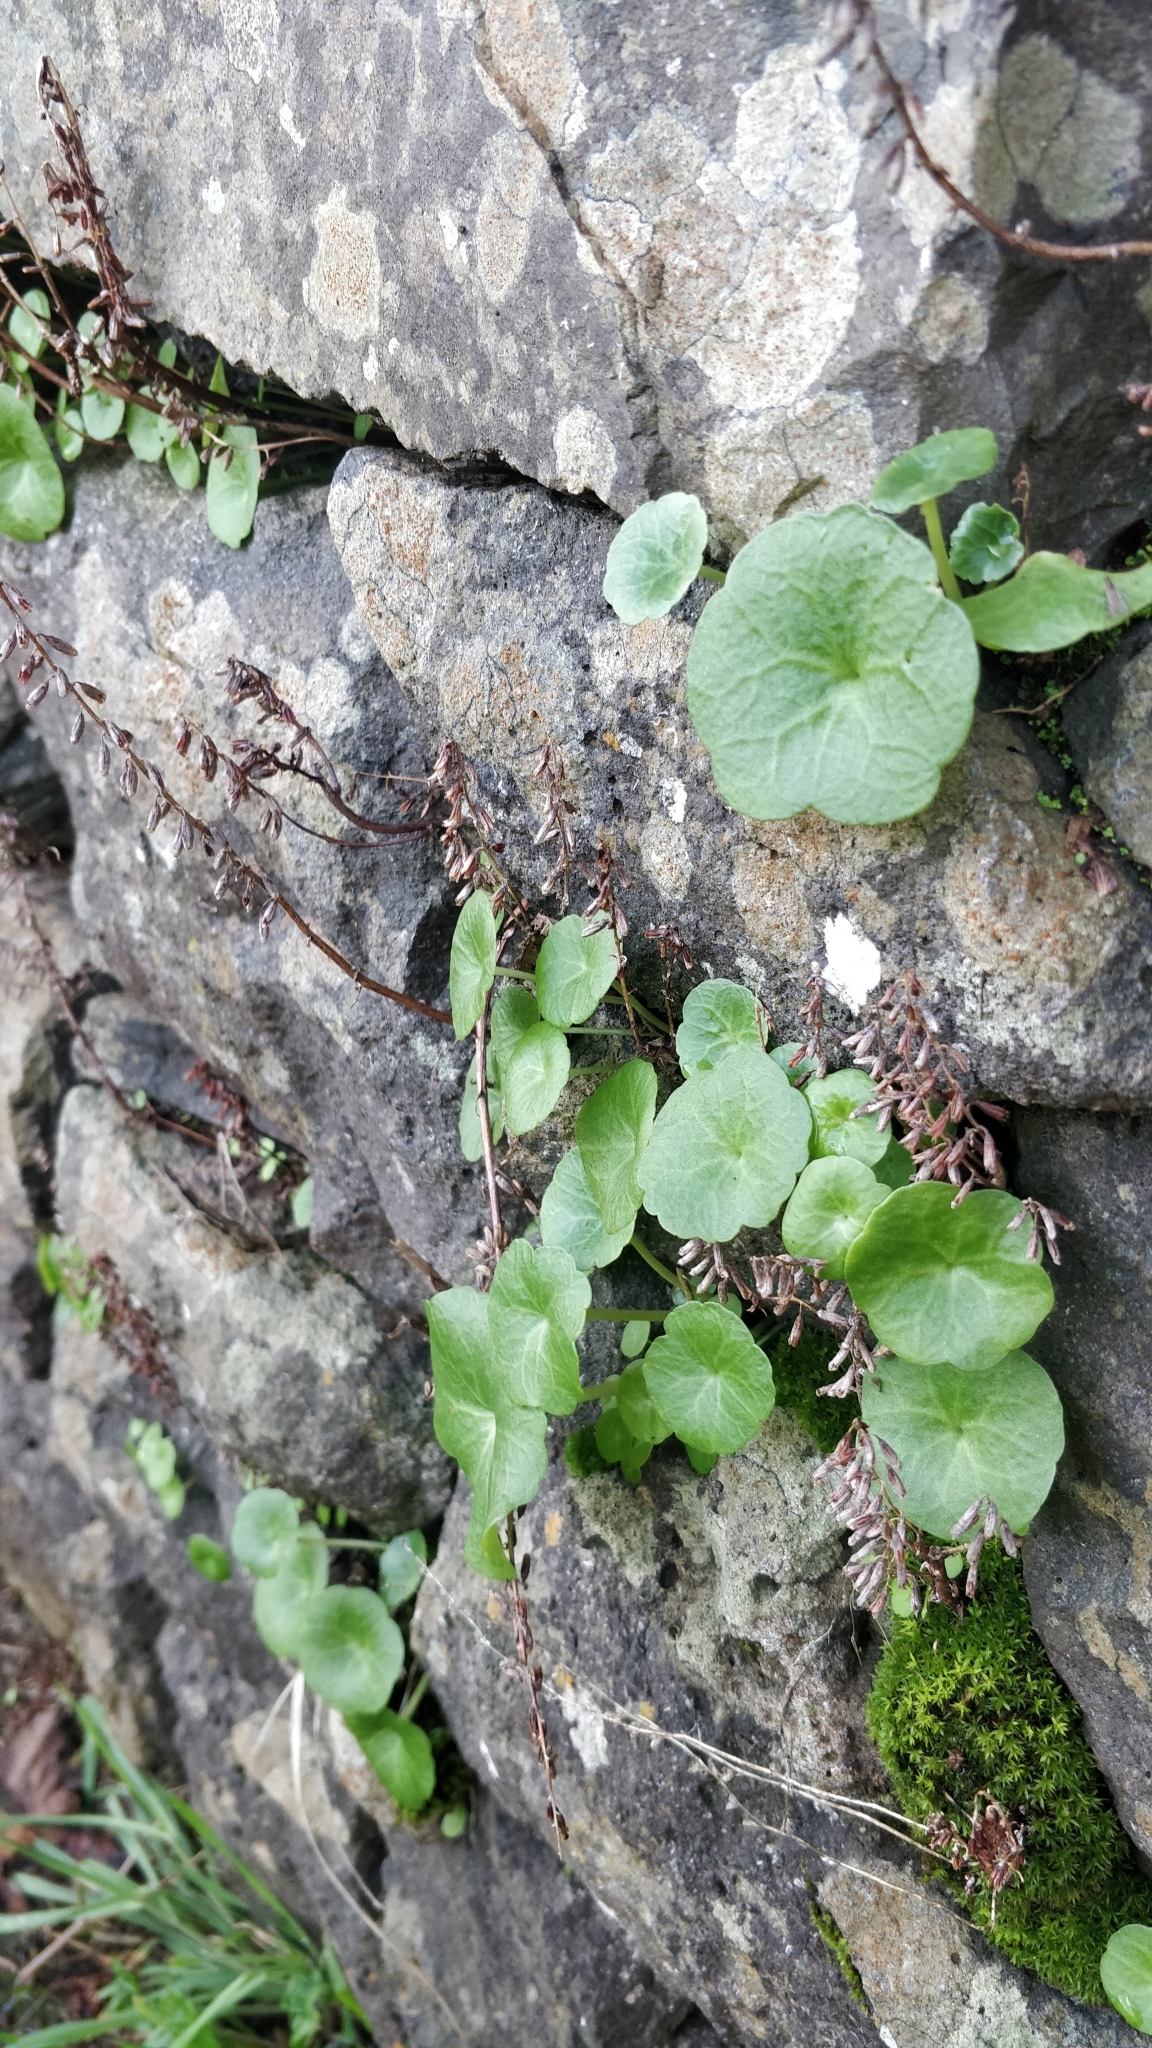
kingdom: Plantae
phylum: Tracheophyta
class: Magnoliopsida
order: Saxifragales
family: Crassulaceae
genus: Umbilicus
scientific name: Umbilicus rupestris
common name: Navelwort
